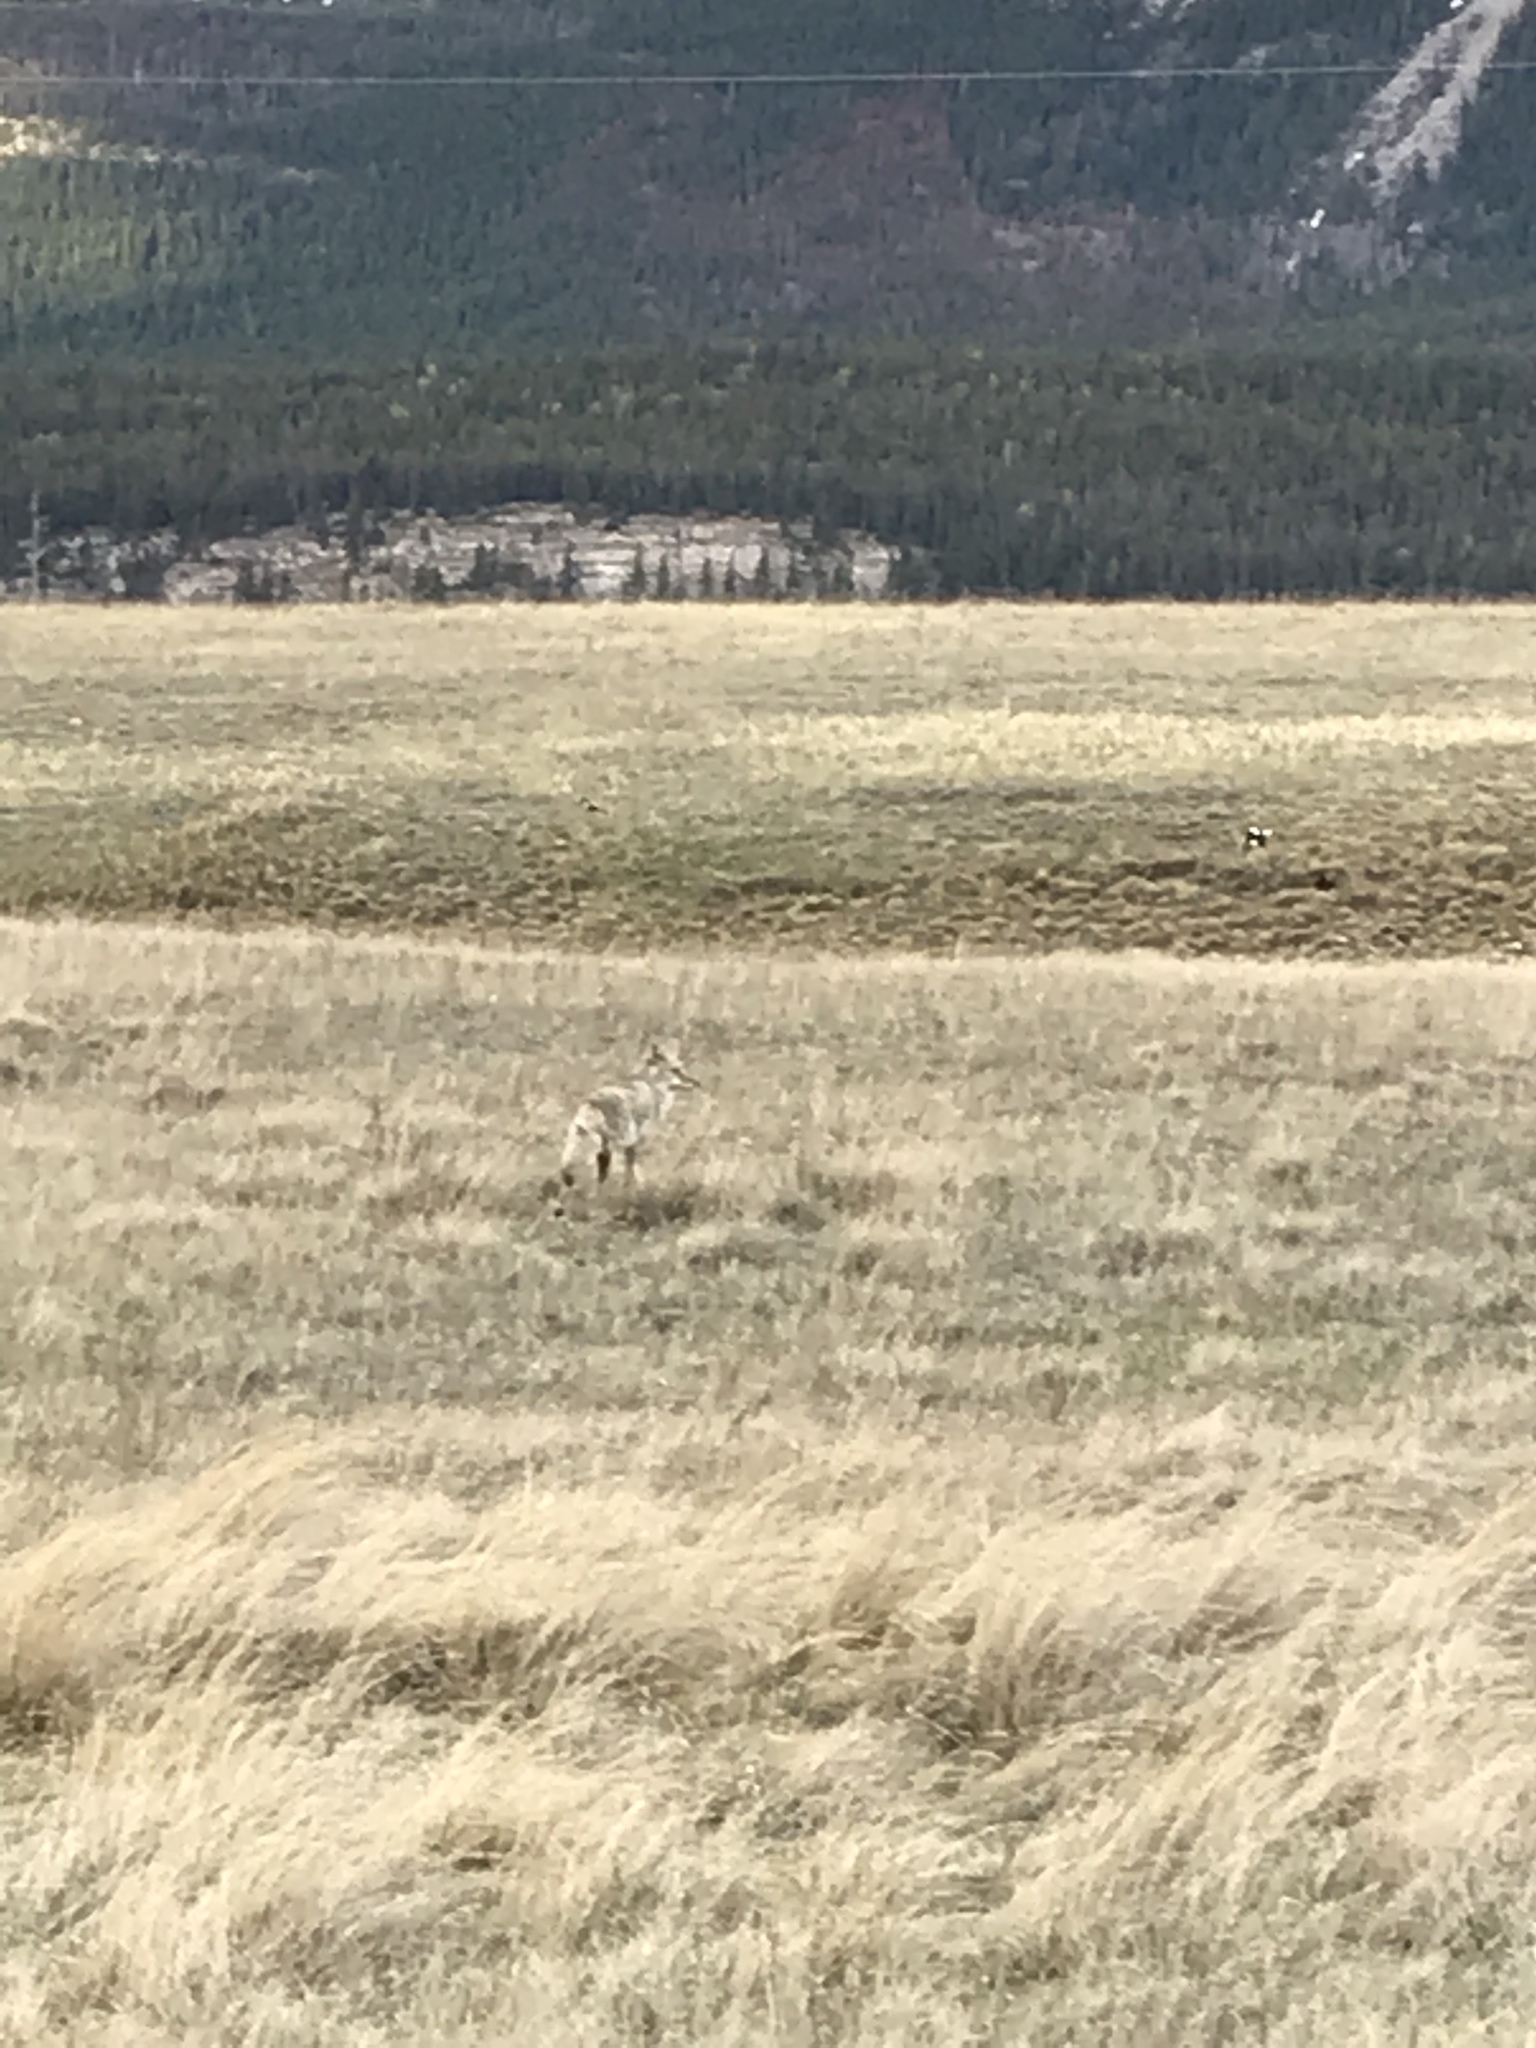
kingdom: Animalia
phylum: Chordata
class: Mammalia
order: Carnivora
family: Canidae
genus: Canis
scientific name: Canis latrans
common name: Coyote
